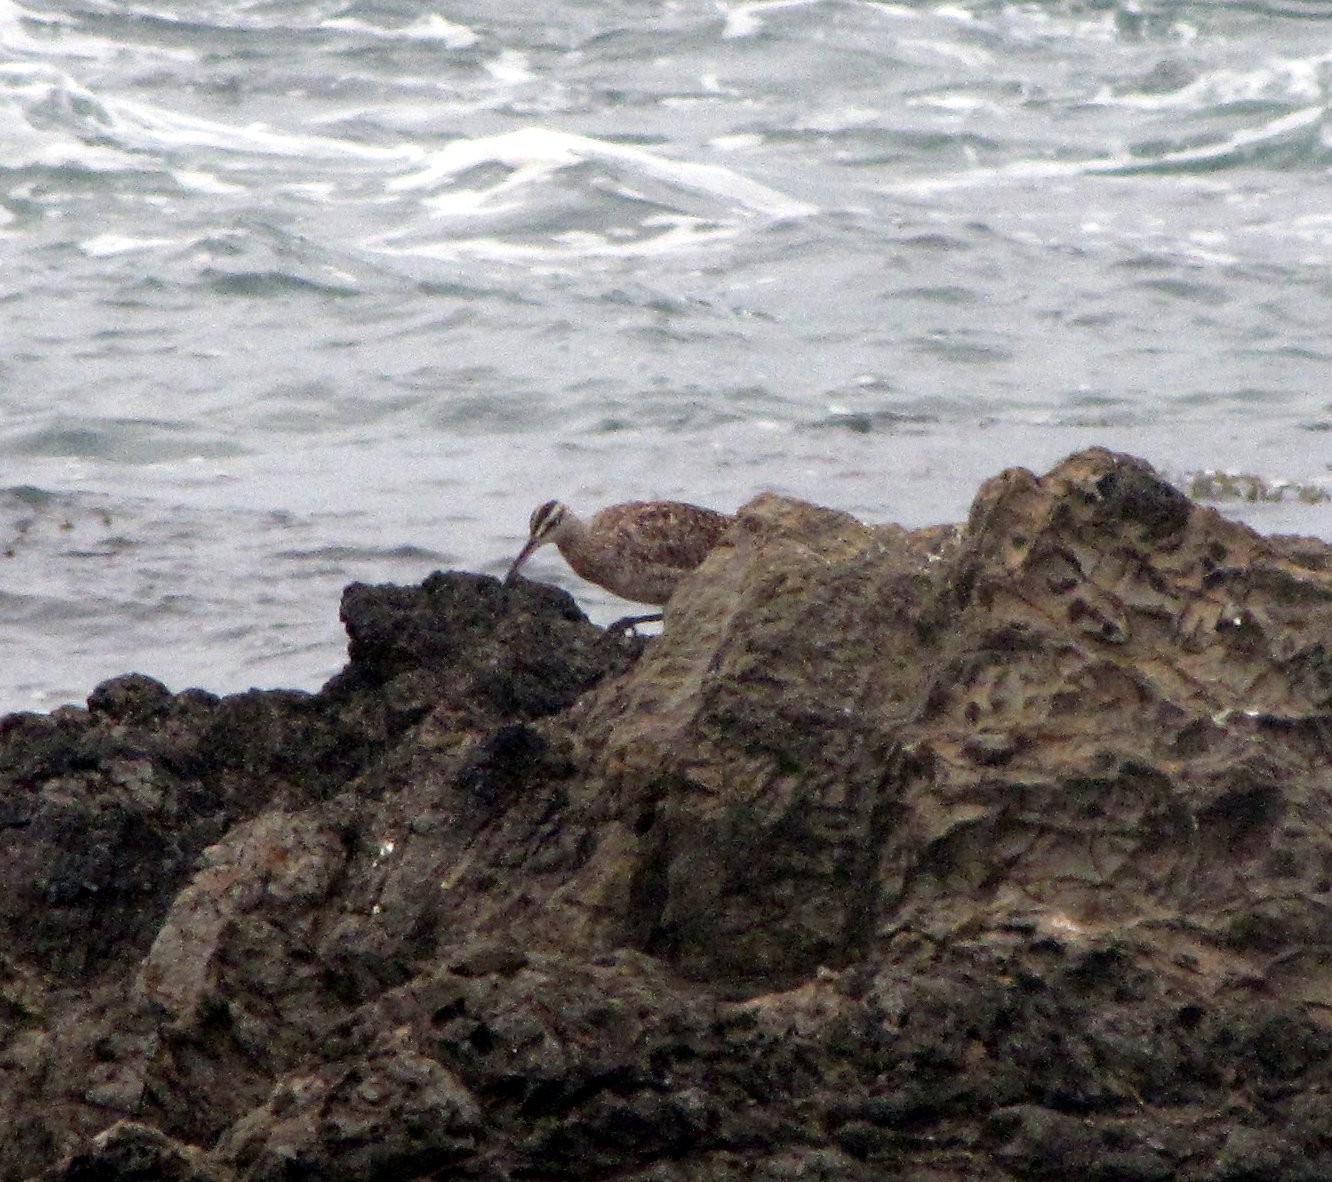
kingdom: Animalia
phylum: Chordata
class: Aves
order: Charadriiformes
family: Scolopacidae
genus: Numenius
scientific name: Numenius phaeopus
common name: Whimbrel
